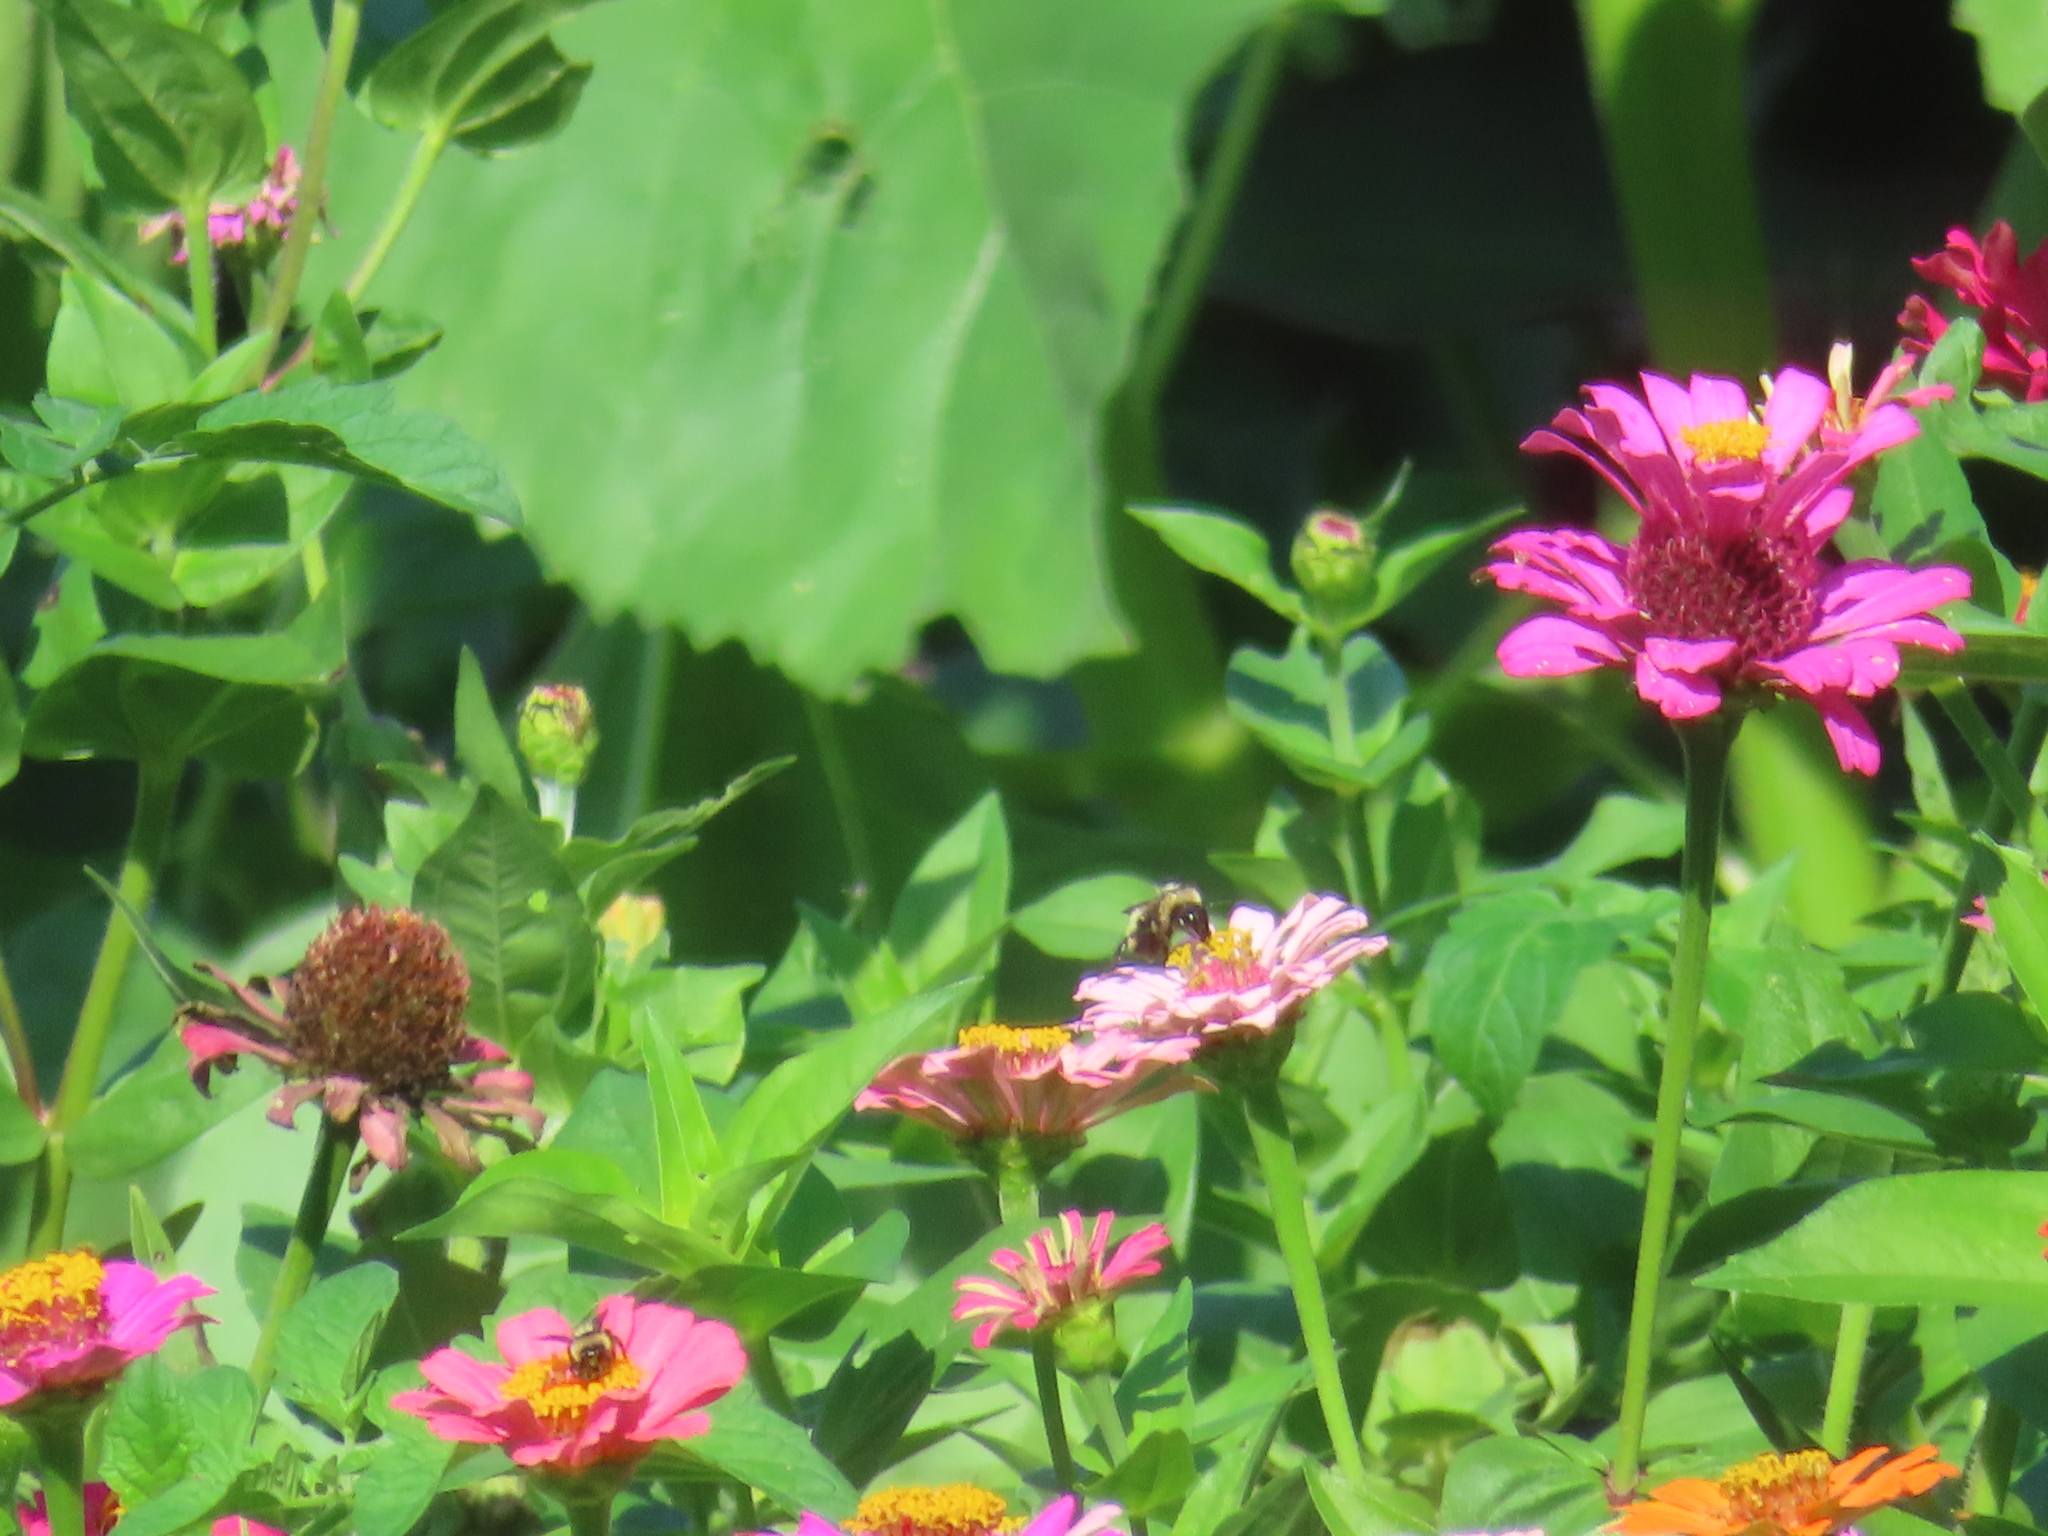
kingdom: Animalia
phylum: Arthropoda
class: Insecta
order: Hymenoptera
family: Apidae
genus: Bombus
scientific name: Bombus
